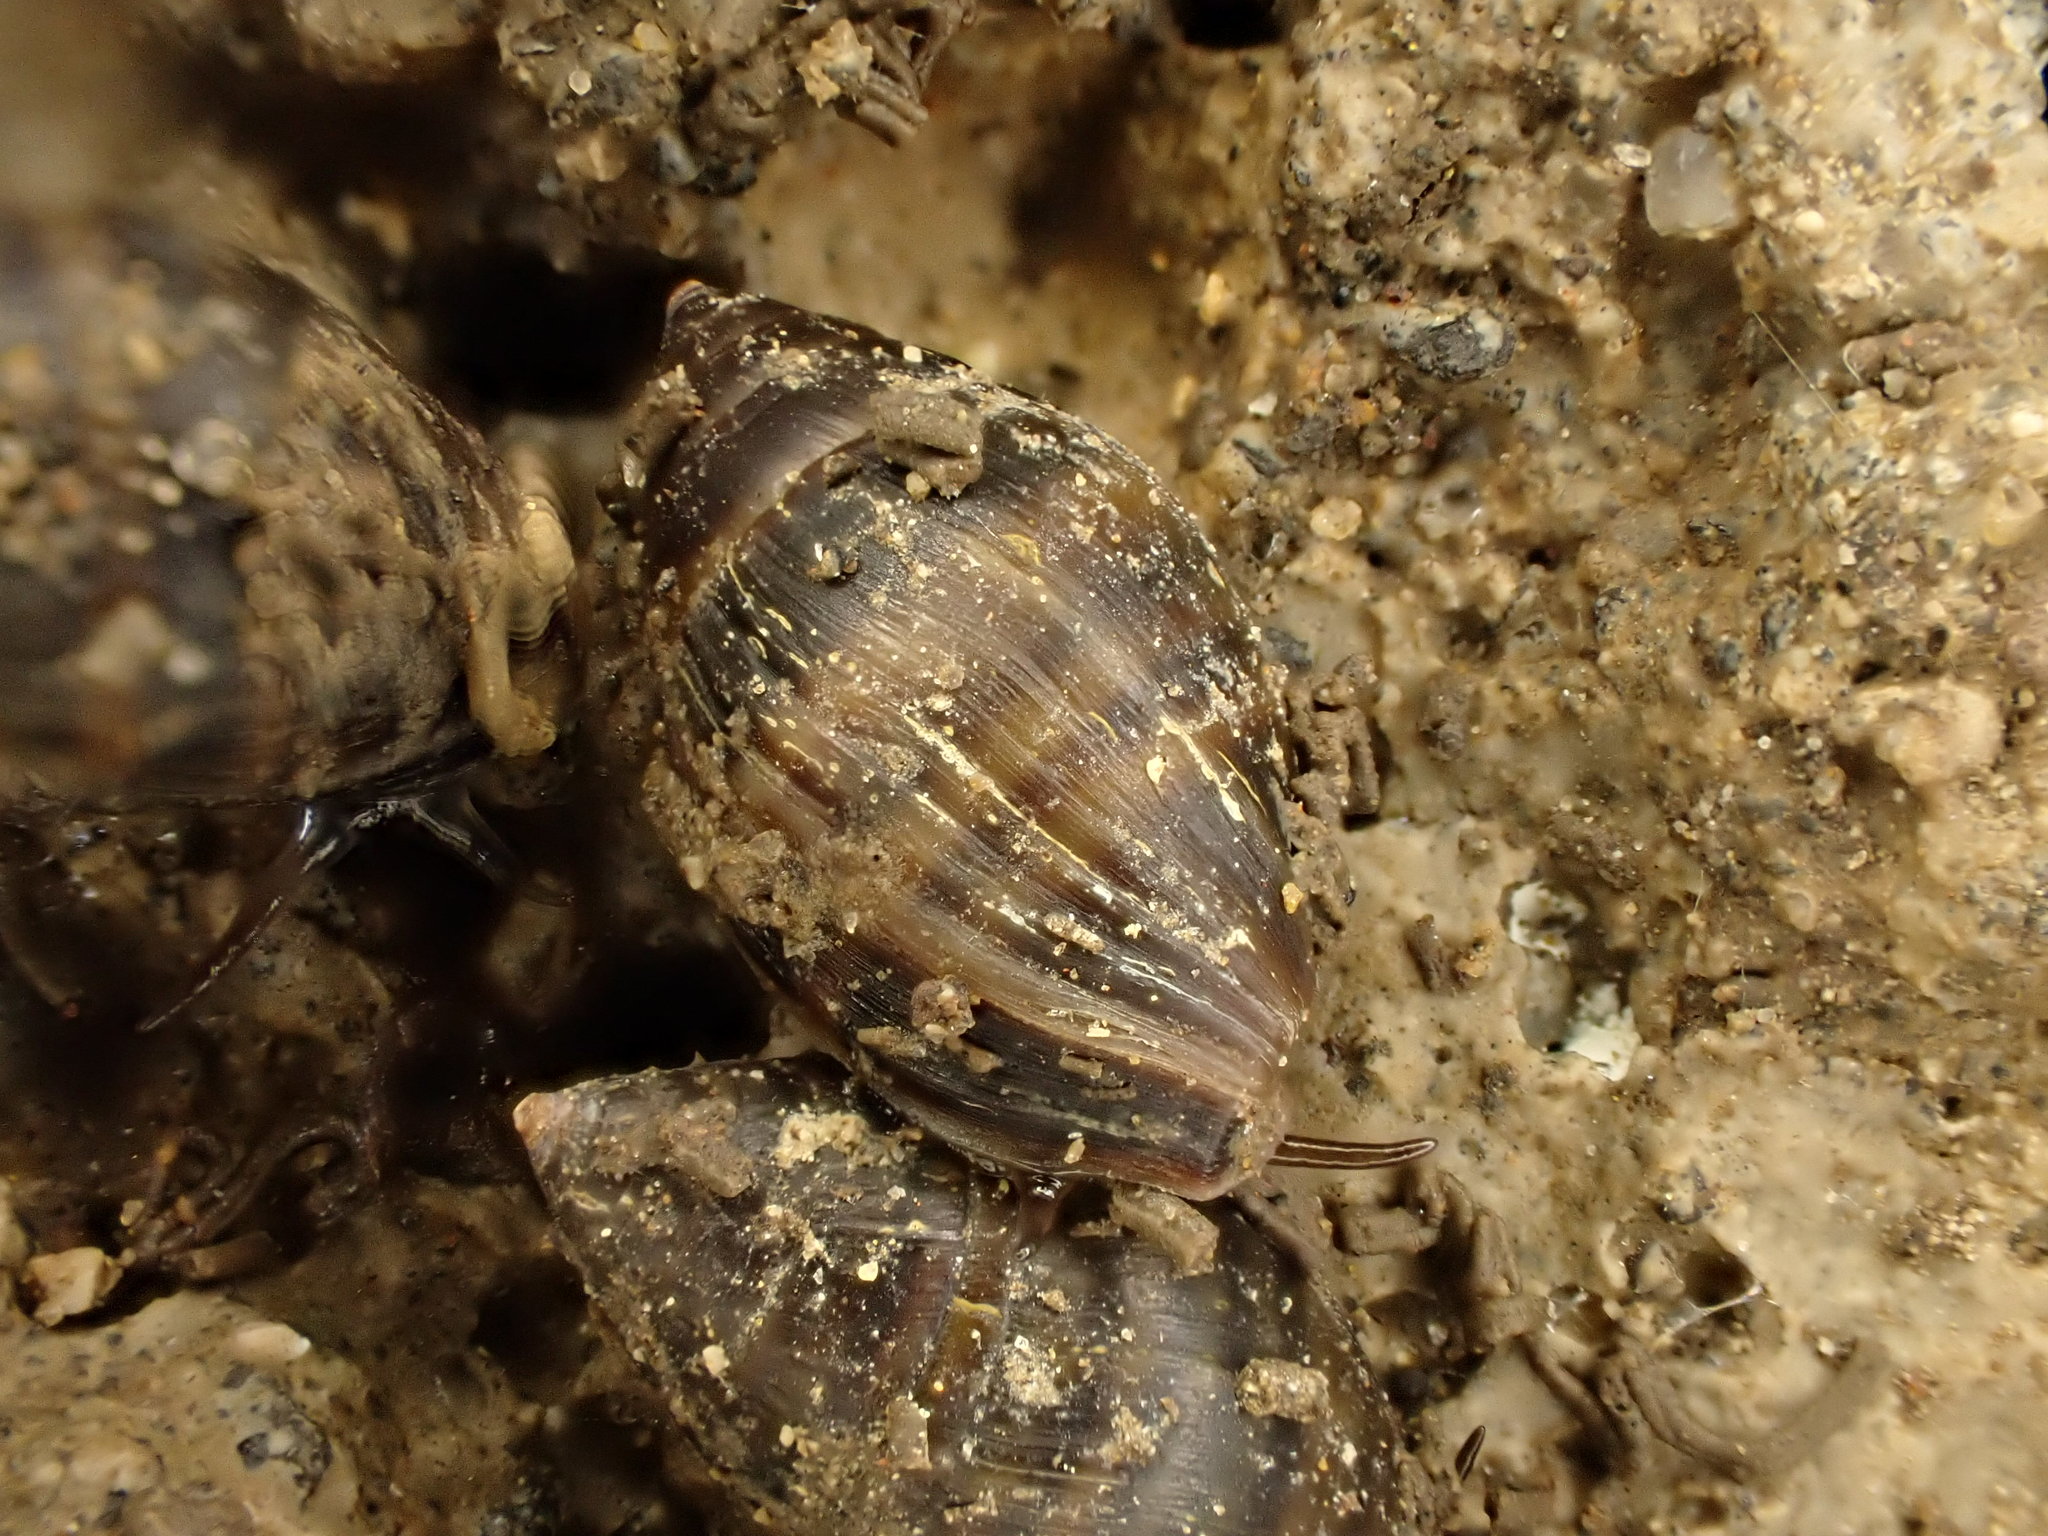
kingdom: Animalia
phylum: Mollusca
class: Gastropoda
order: Ellobiida
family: Ellobiidae
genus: Pleuroloba
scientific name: Pleuroloba costellaris
